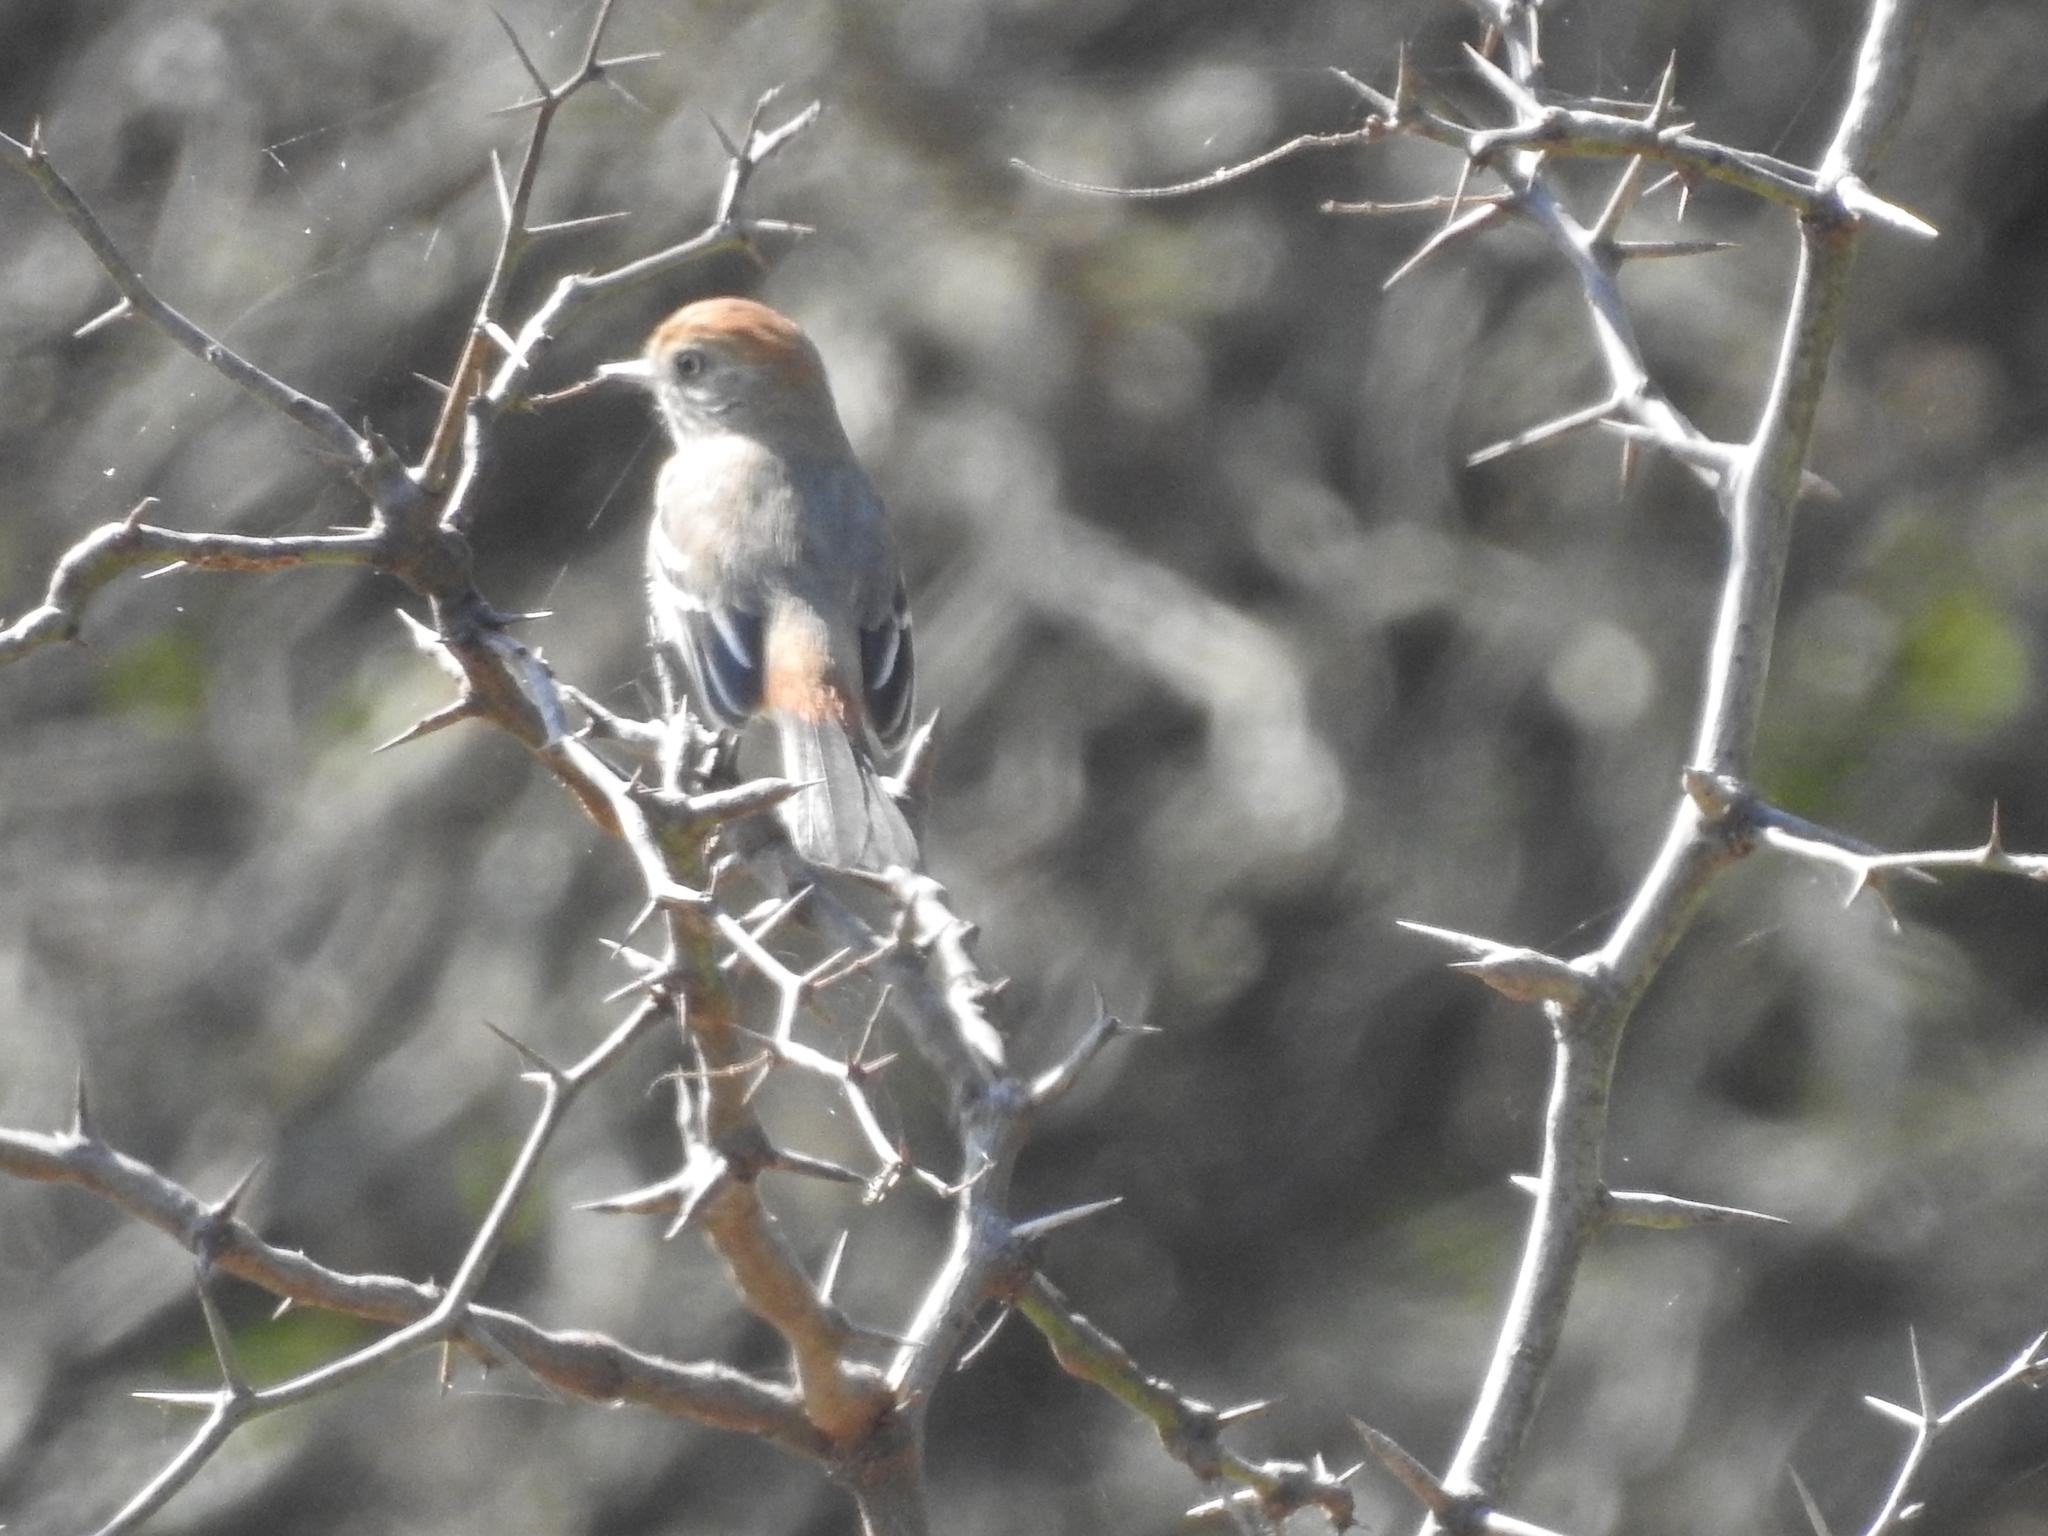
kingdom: Animalia
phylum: Chordata
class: Aves
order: Passeriformes
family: Tyrannidae
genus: Knipolegus
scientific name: Knipolegus striaticeps
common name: Cinereous tyrant
